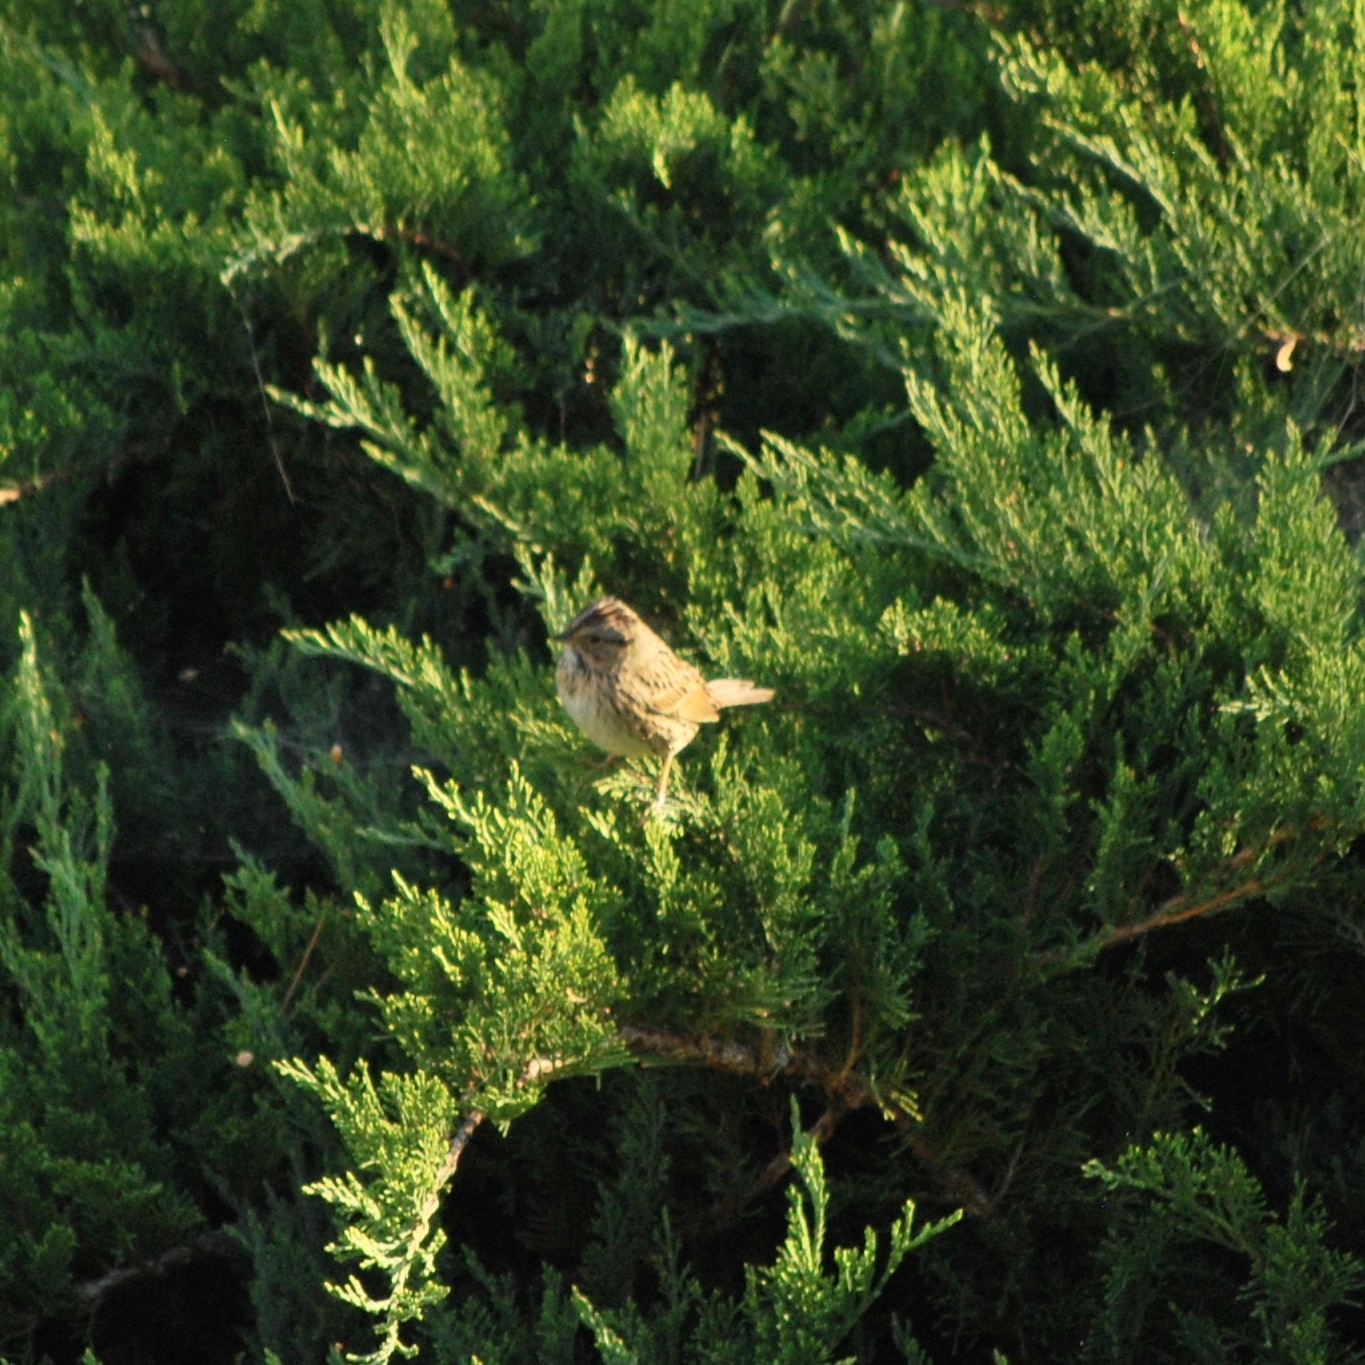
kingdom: Animalia
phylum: Chordata
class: Aves
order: Passeriformes
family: Passerellidae
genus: Melospiza
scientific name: Melospiza lincolnii
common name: Lincoln's sparrow
